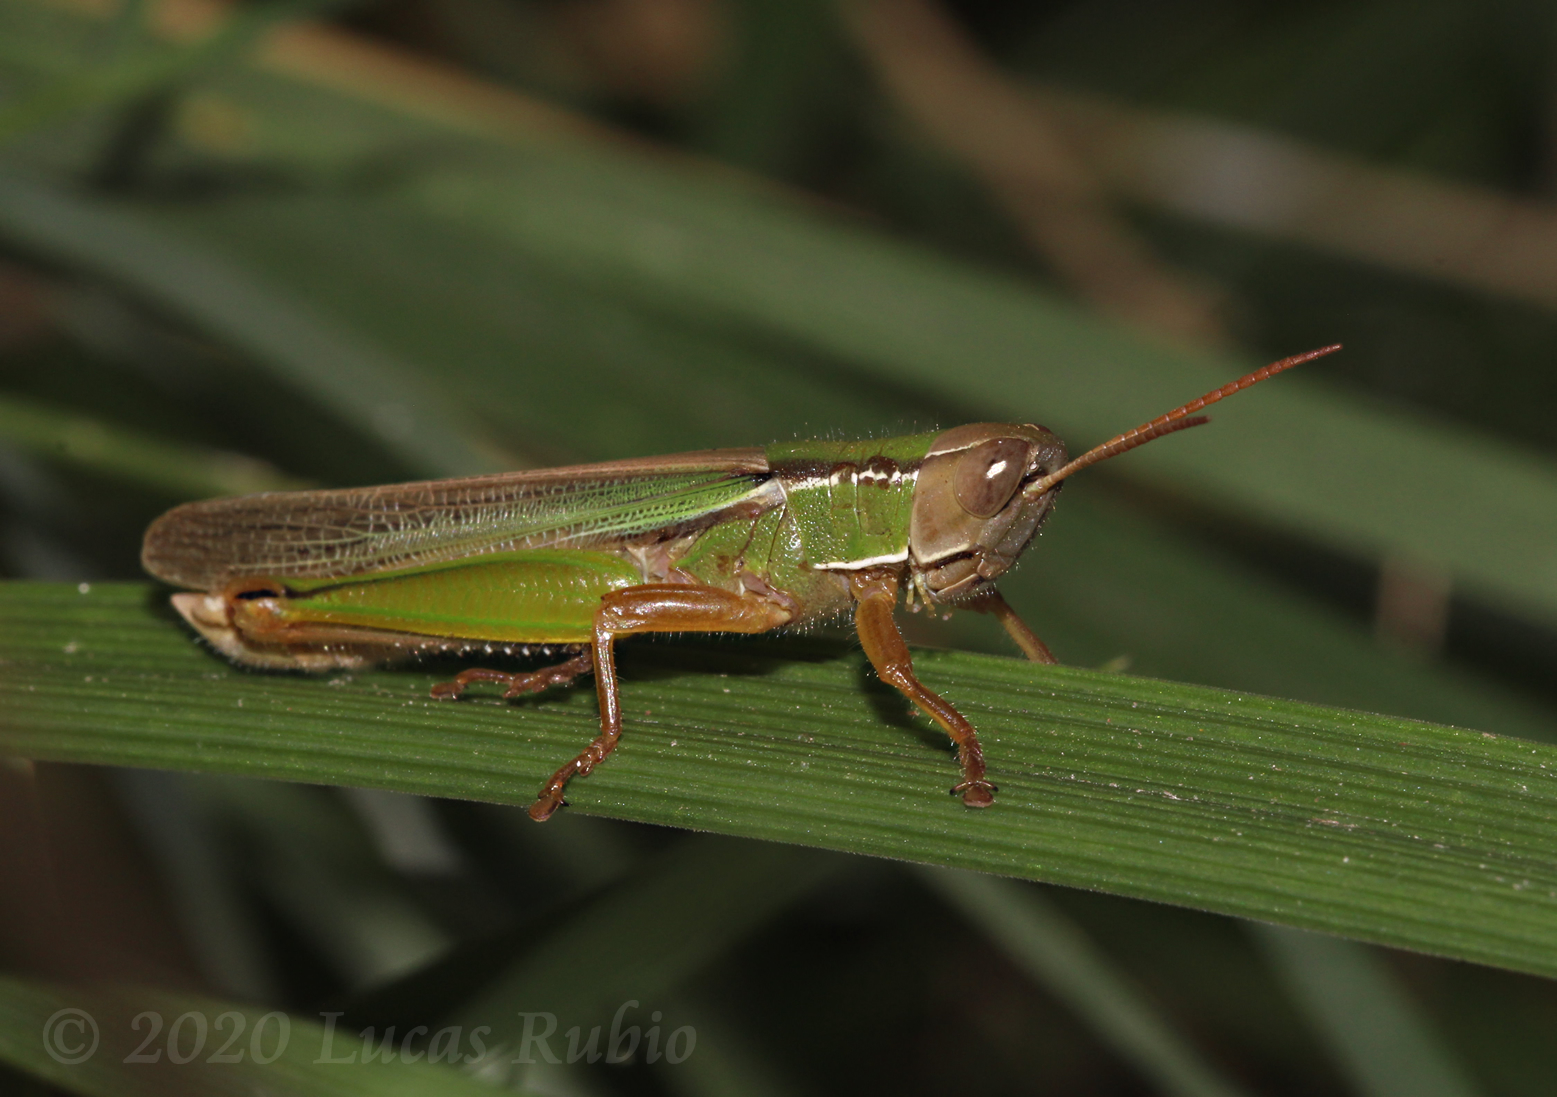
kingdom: Animalia
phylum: Arthropoda
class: Insecta
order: Orthoptera
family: Acrididae
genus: Aleuas
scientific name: Aleuas lineatus
